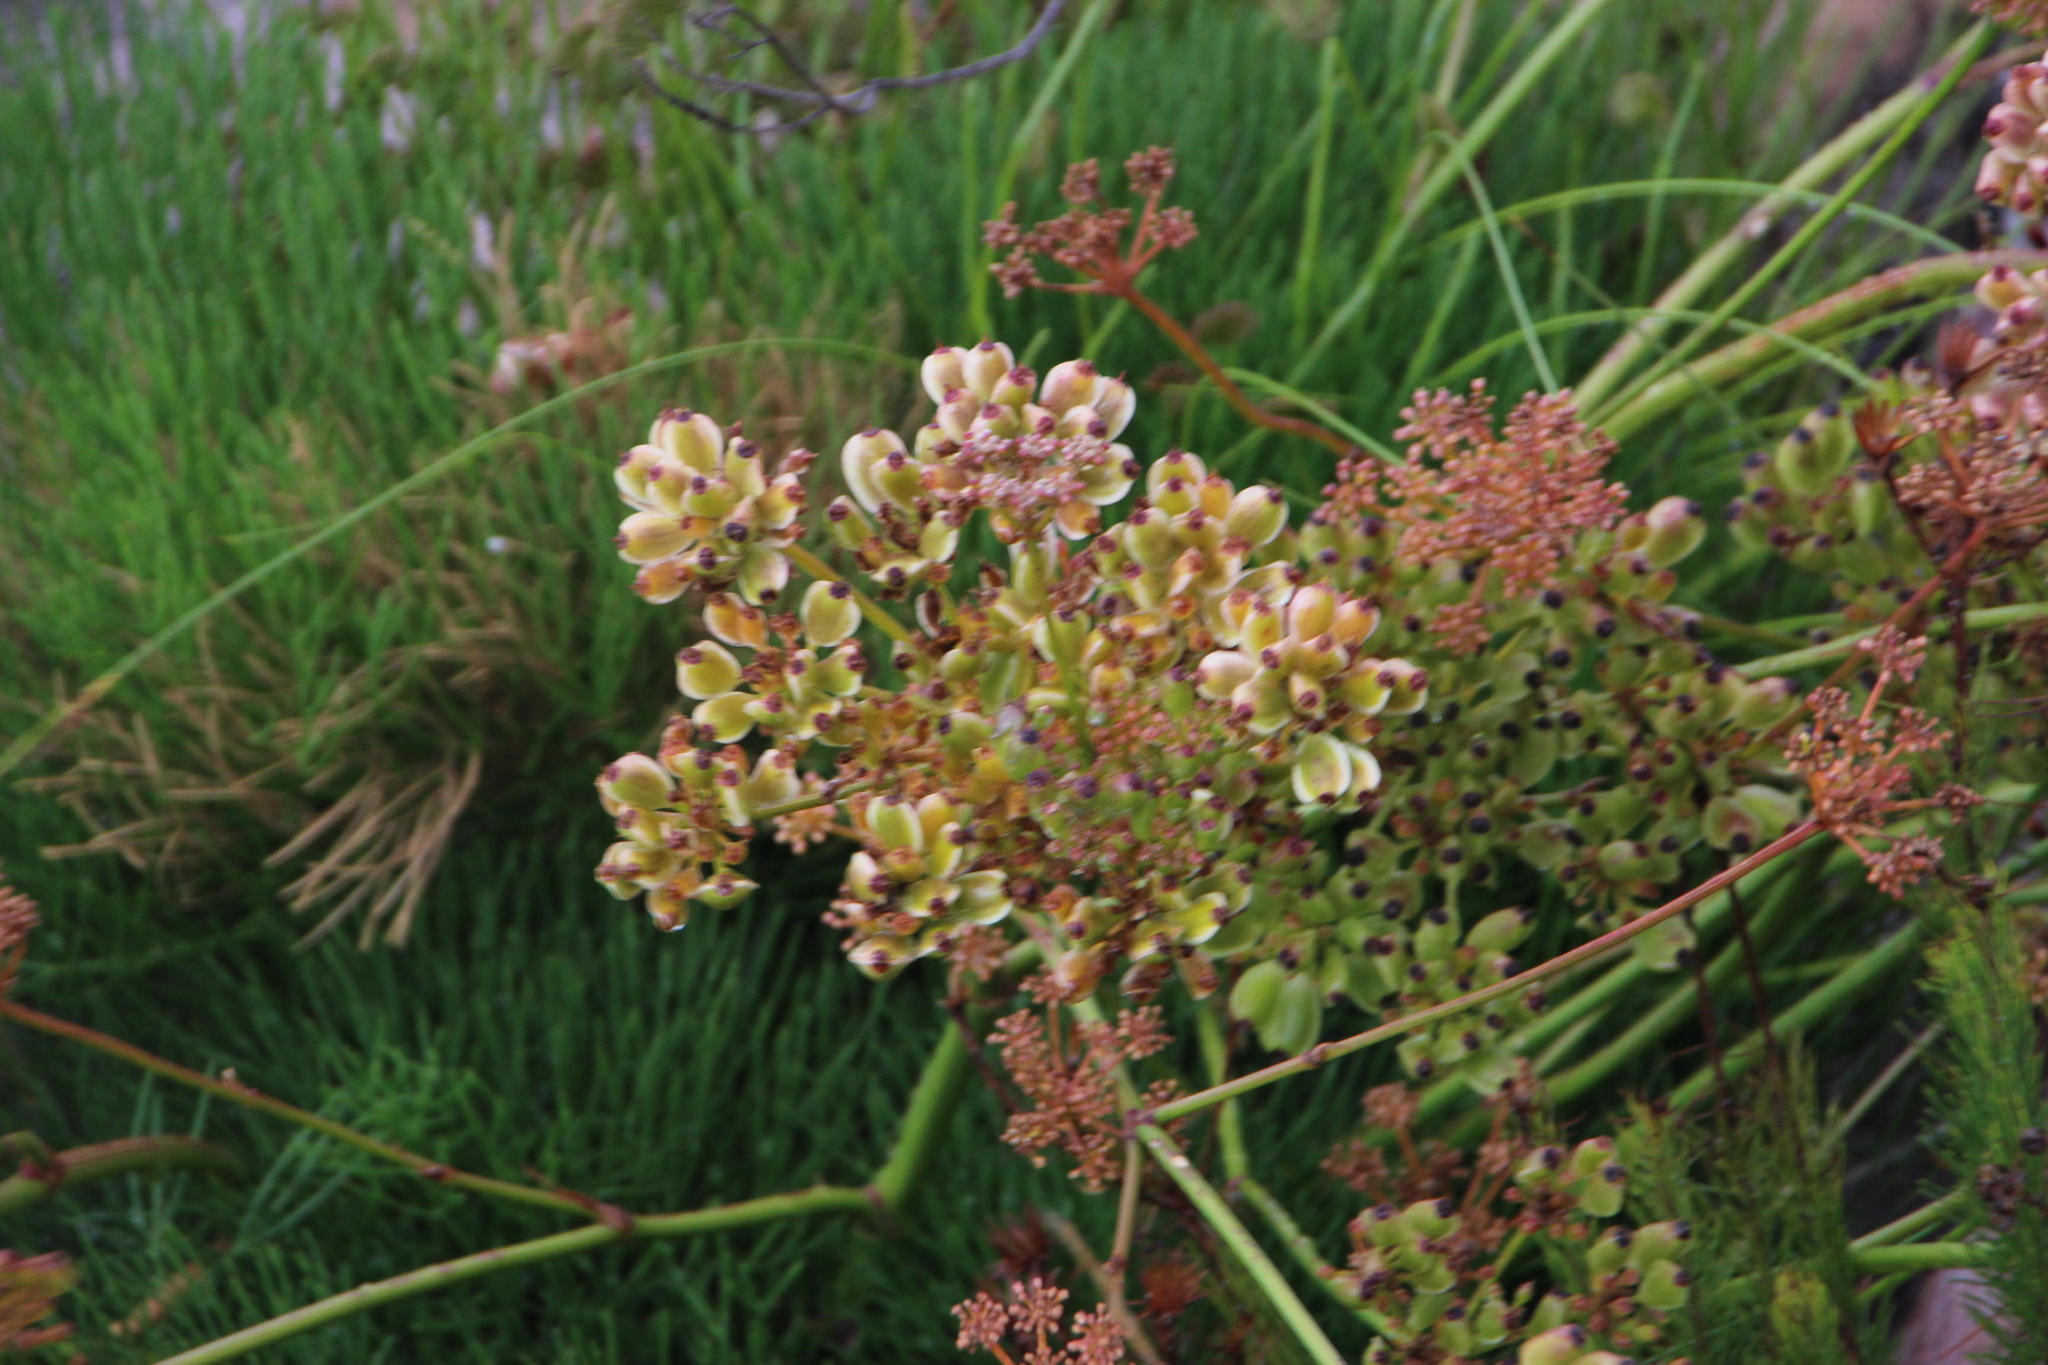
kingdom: Plantae
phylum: Tracheophyta
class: Magnoliopsida
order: Apiales
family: Apiaceae
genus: Nanobubon
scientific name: Nanobubon strictum
